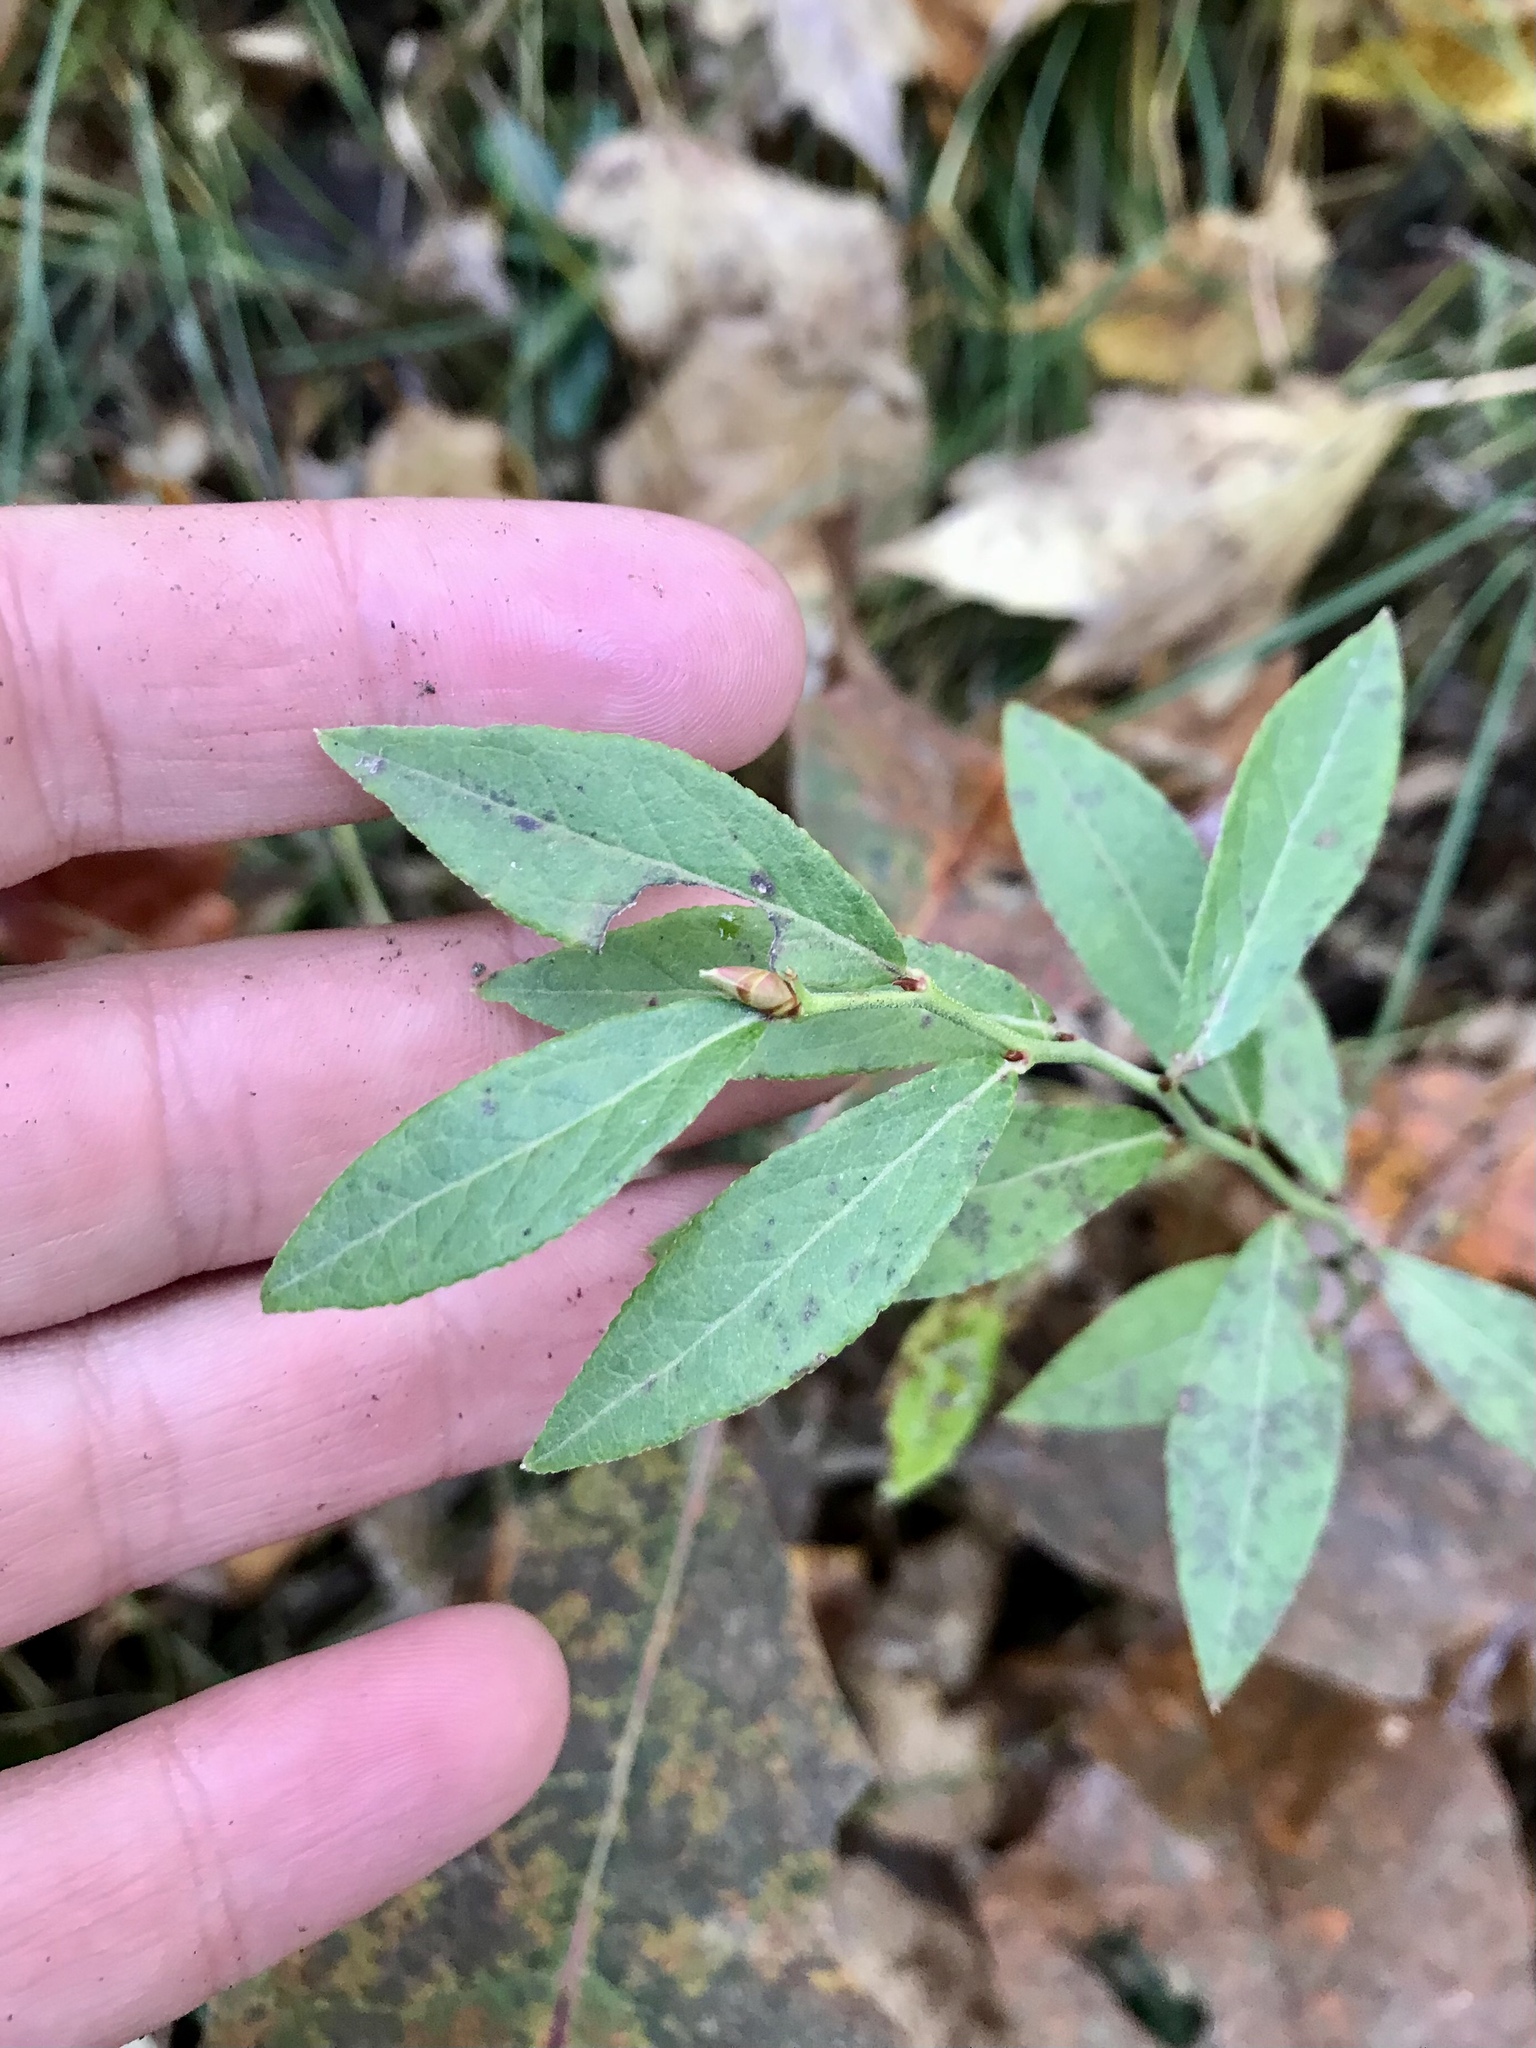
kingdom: Plantae
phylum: Tracheophyta
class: Magnoliopsida
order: Ericales
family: Ericaceae
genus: Vaccinium
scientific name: Vaccinium angustifolium
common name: Early lowbush blueberry
